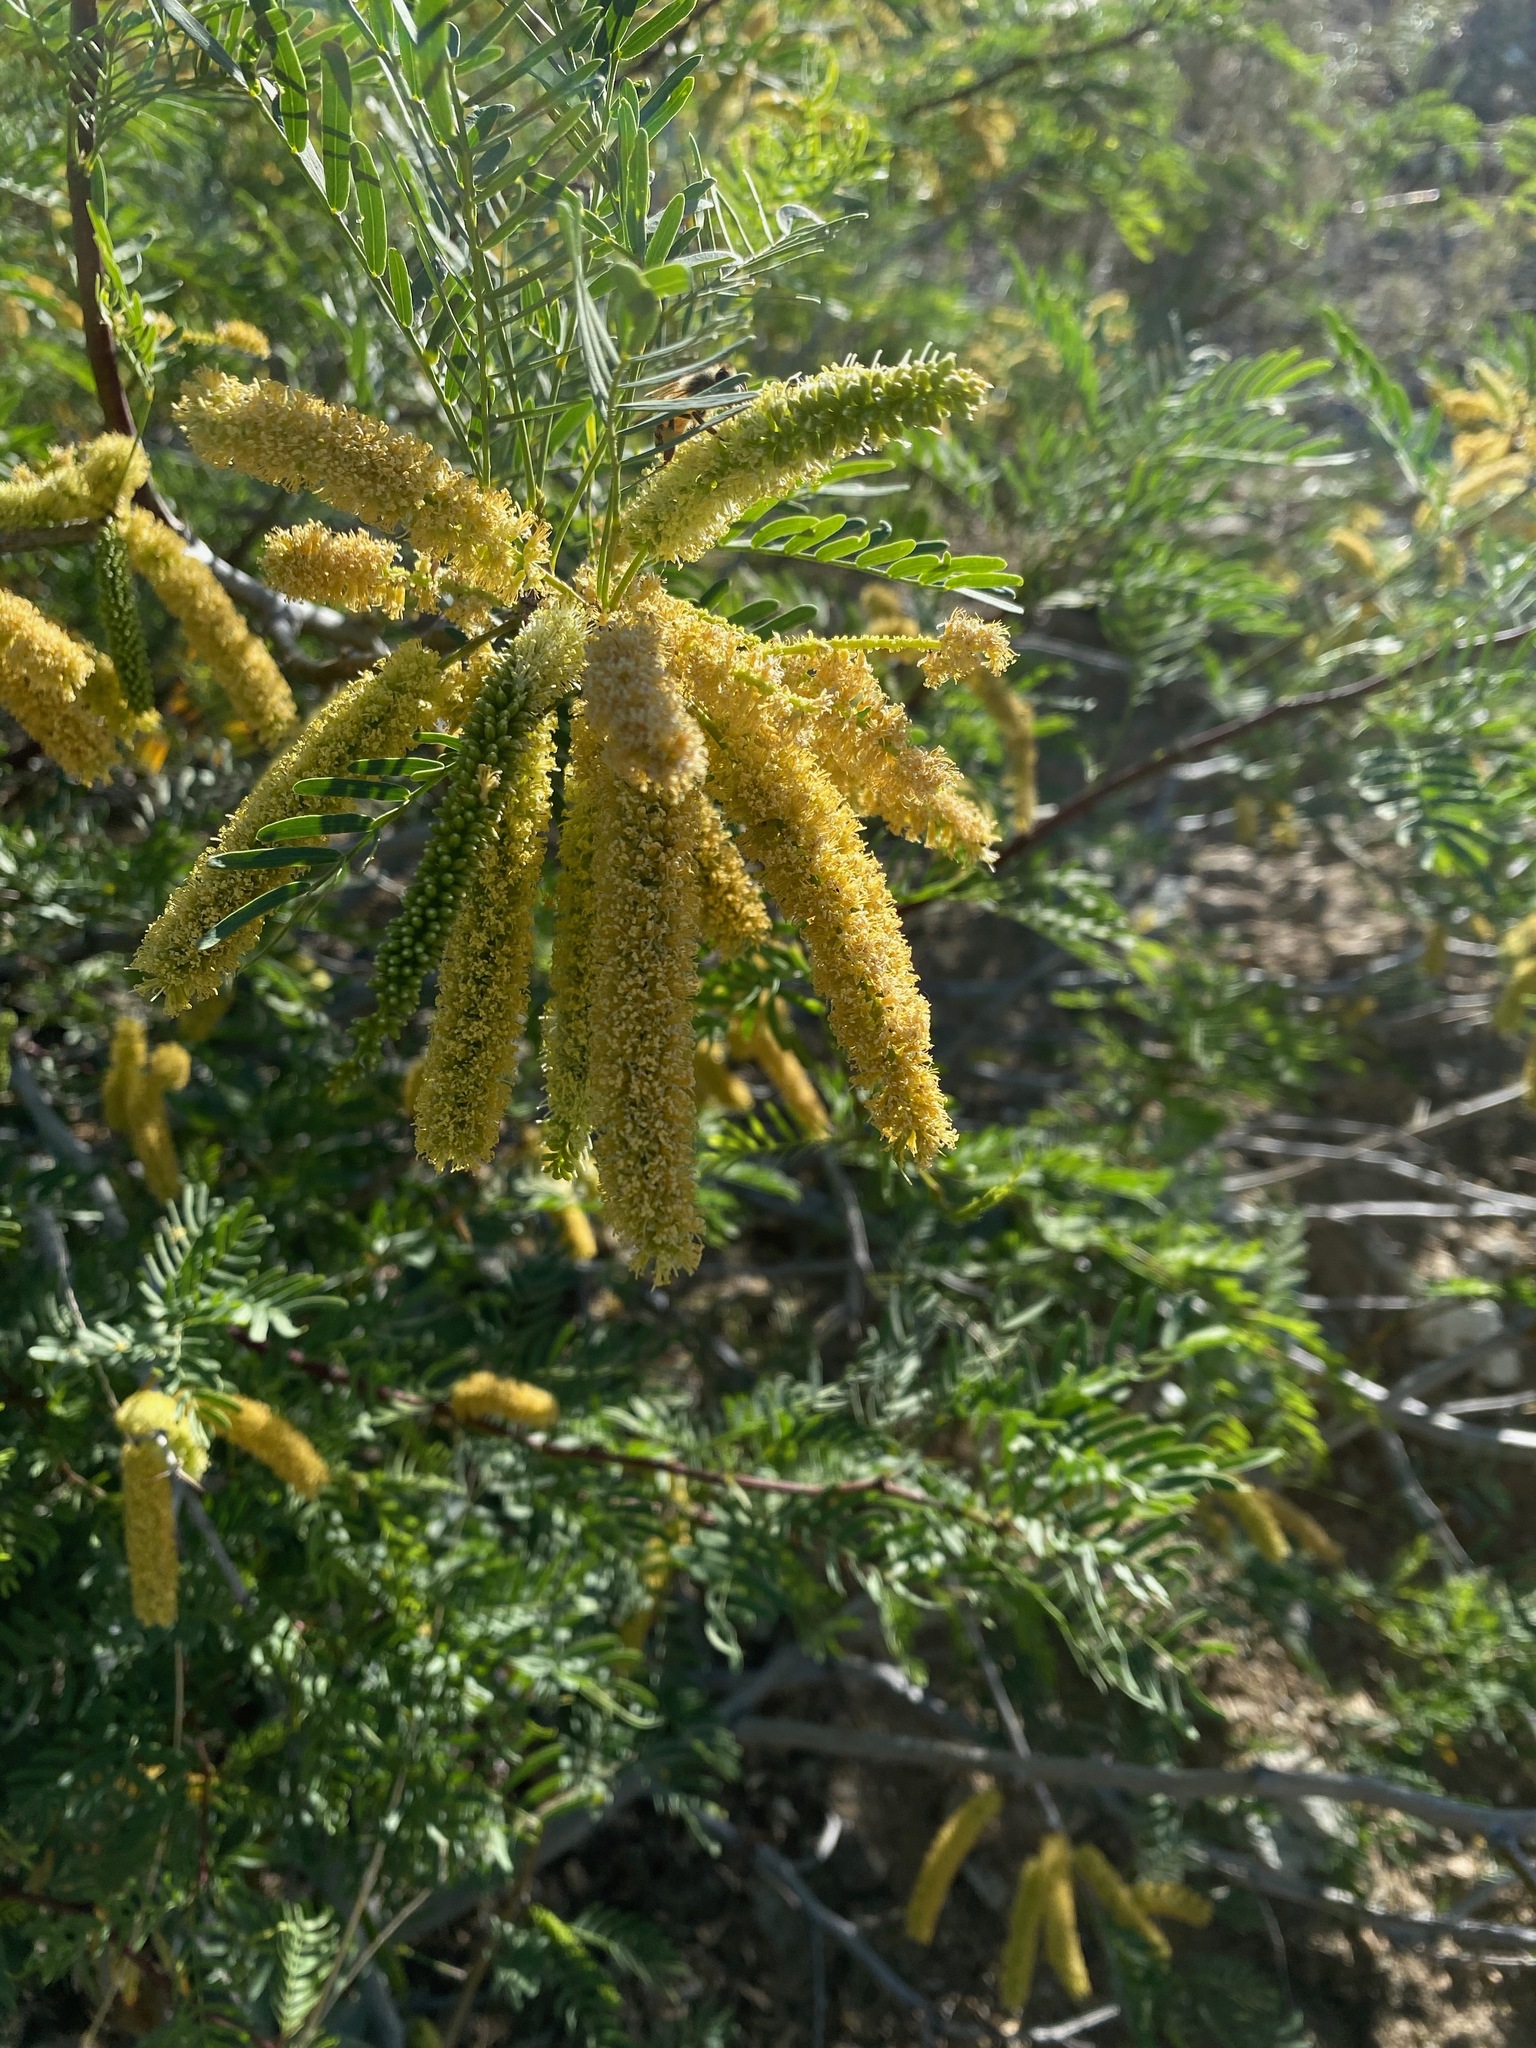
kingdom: Plantae
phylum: Tracheophyta
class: Magnoliopsida
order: Fabales
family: Fabaceae
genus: Prosopis
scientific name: Prosopis pubescens
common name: Screw-bean
